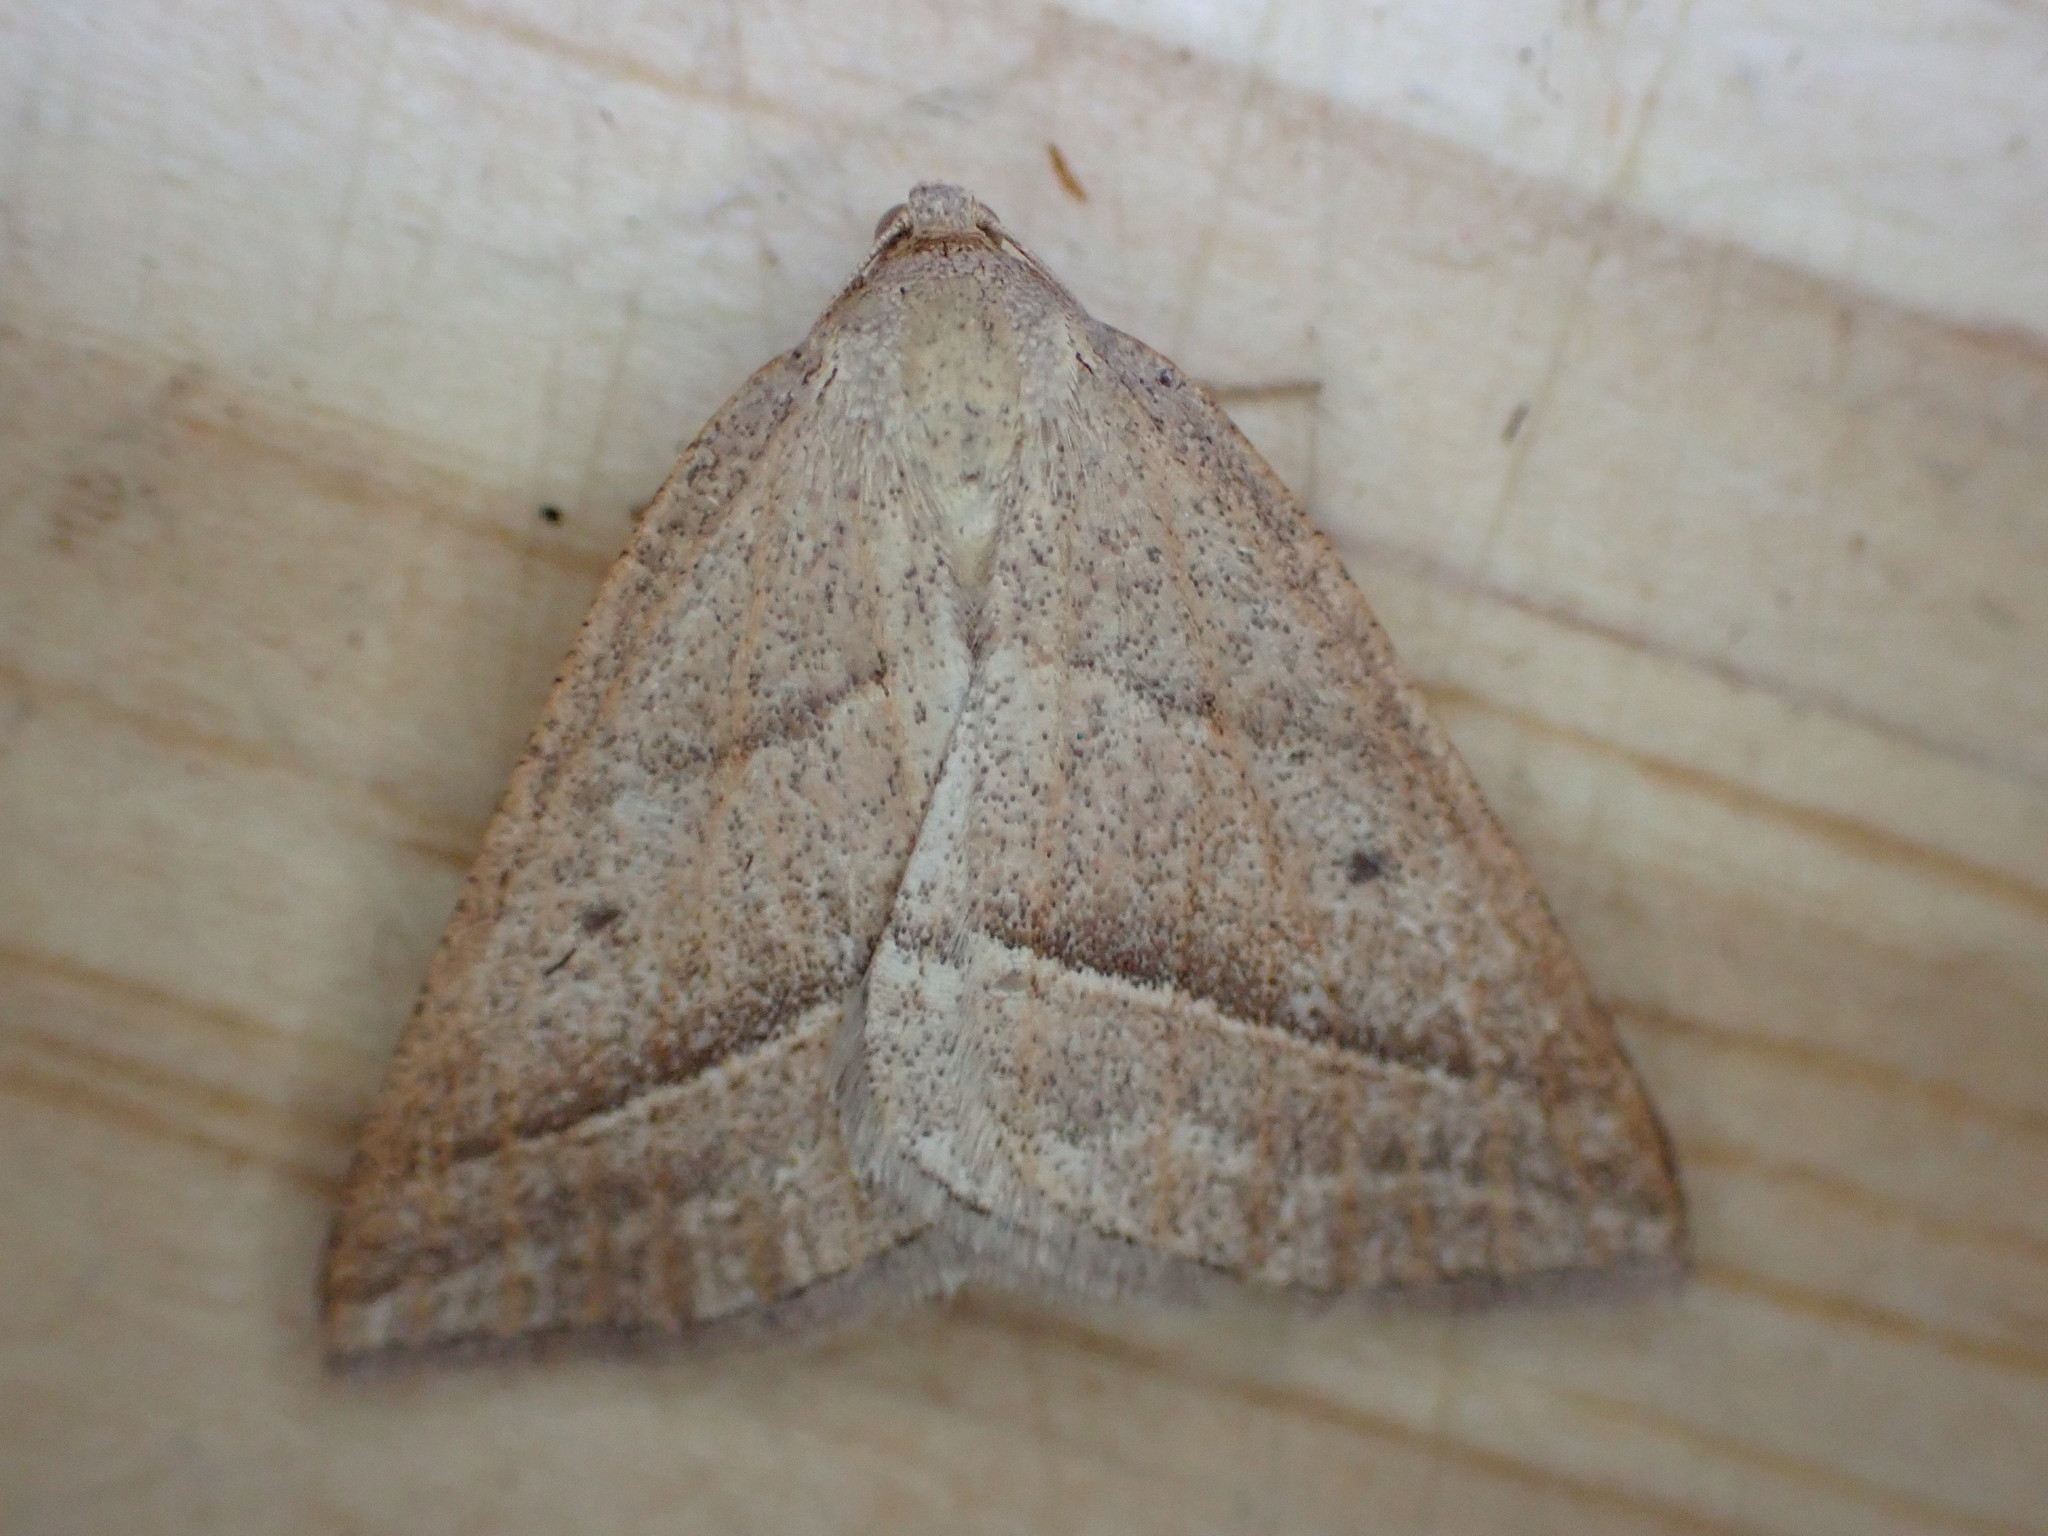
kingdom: Animalia
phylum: Arthropoda
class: Insecta
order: Lepidoptera
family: Pterophoridae
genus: Pterophorus
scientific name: Pterophorus Petrophora chlorosata
